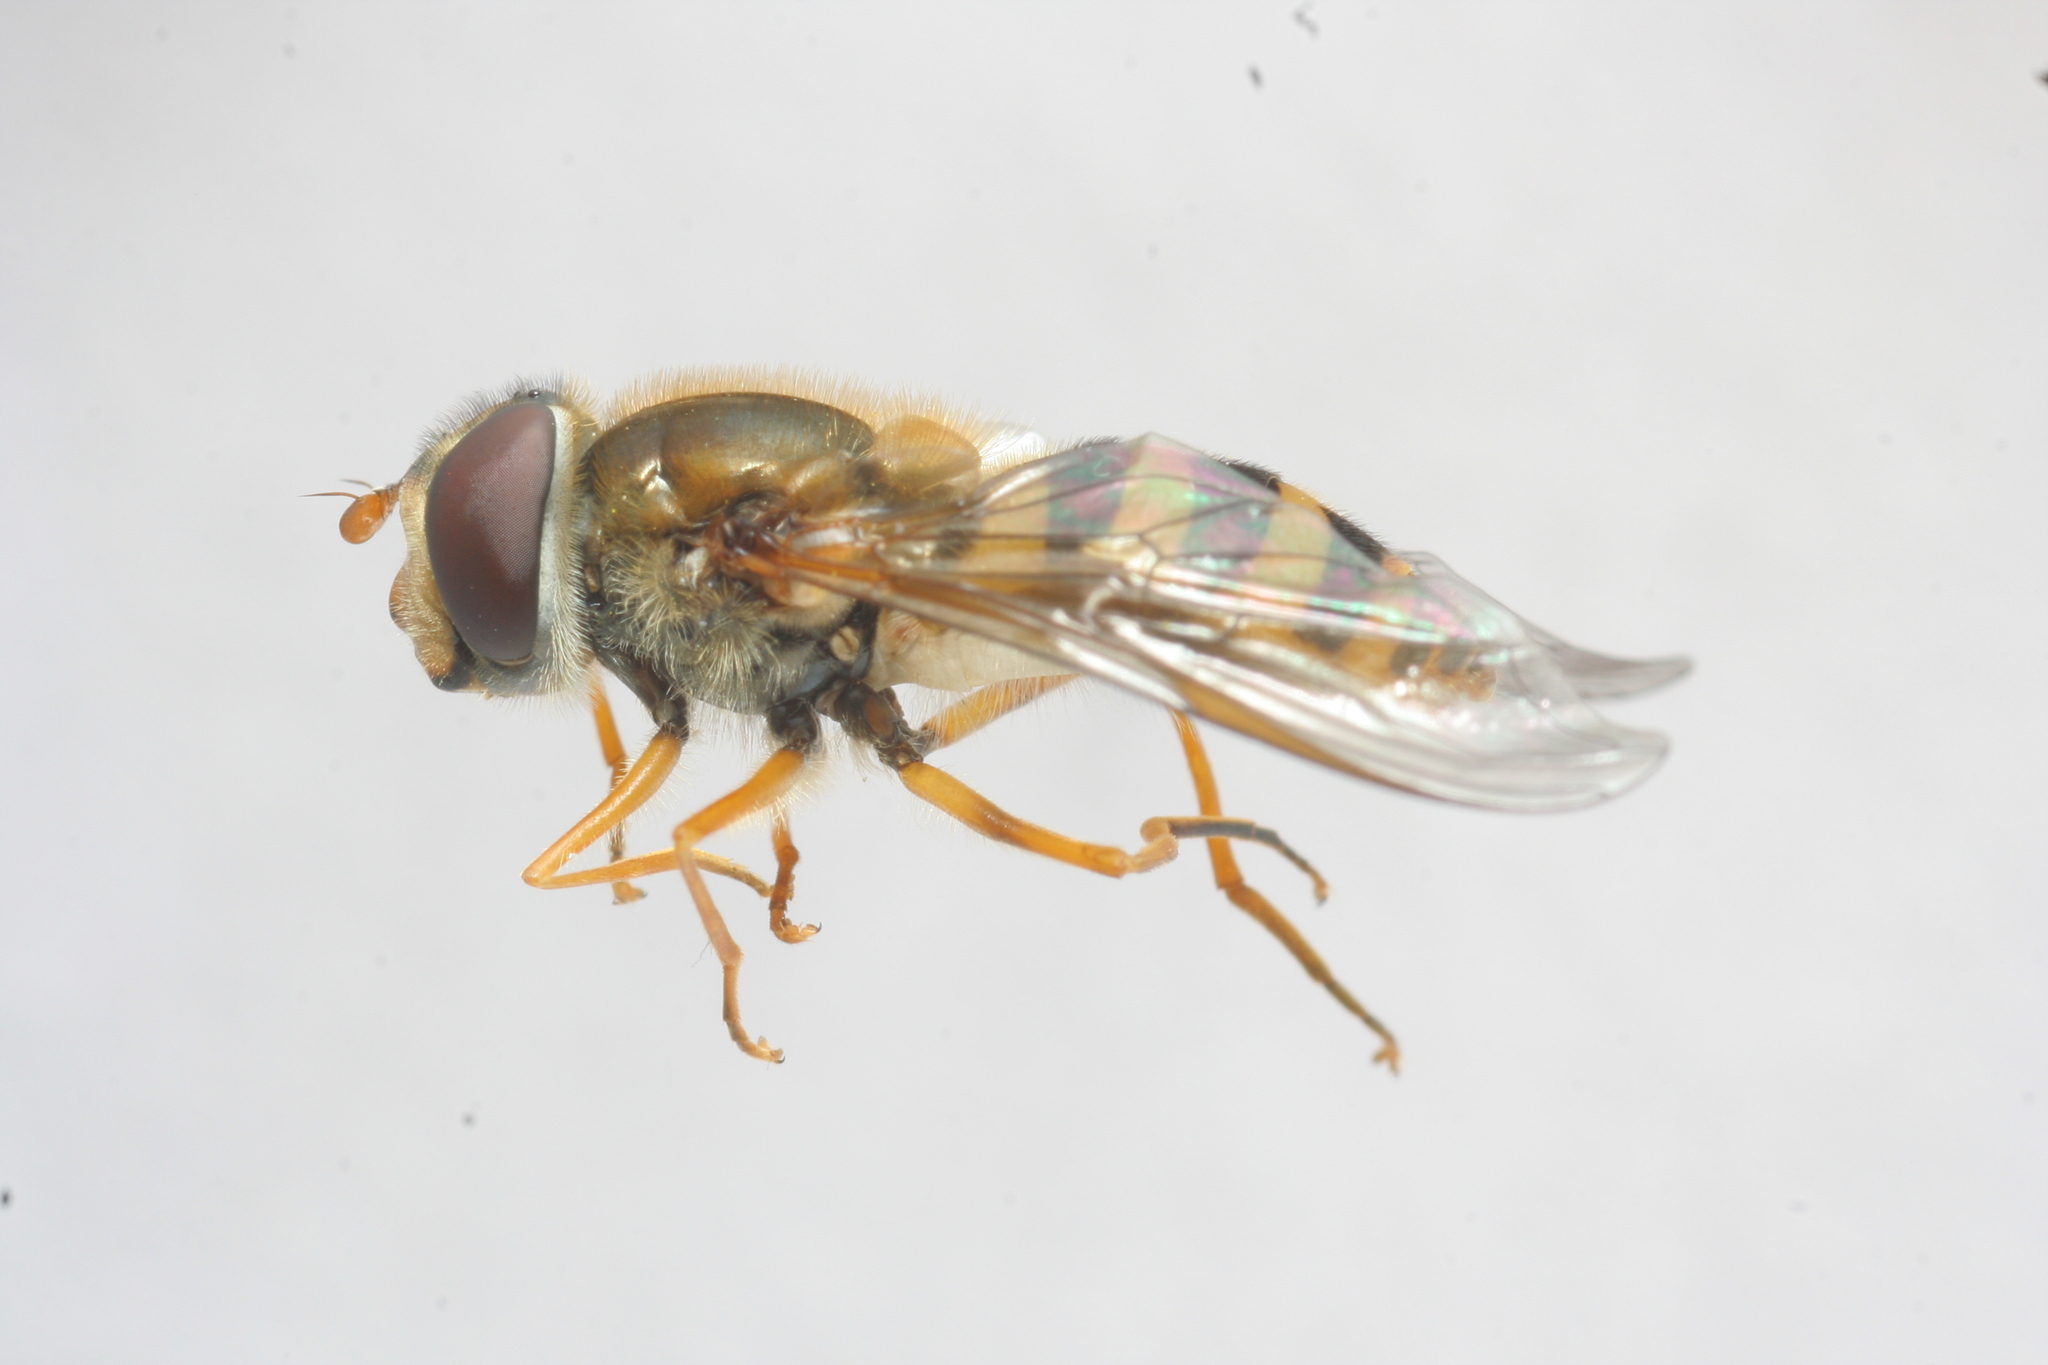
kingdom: Animalia
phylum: Arthropoda
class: Insecta
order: Diptera
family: Syrphidae
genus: Epistrophe
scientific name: Epistrophe cryptica
